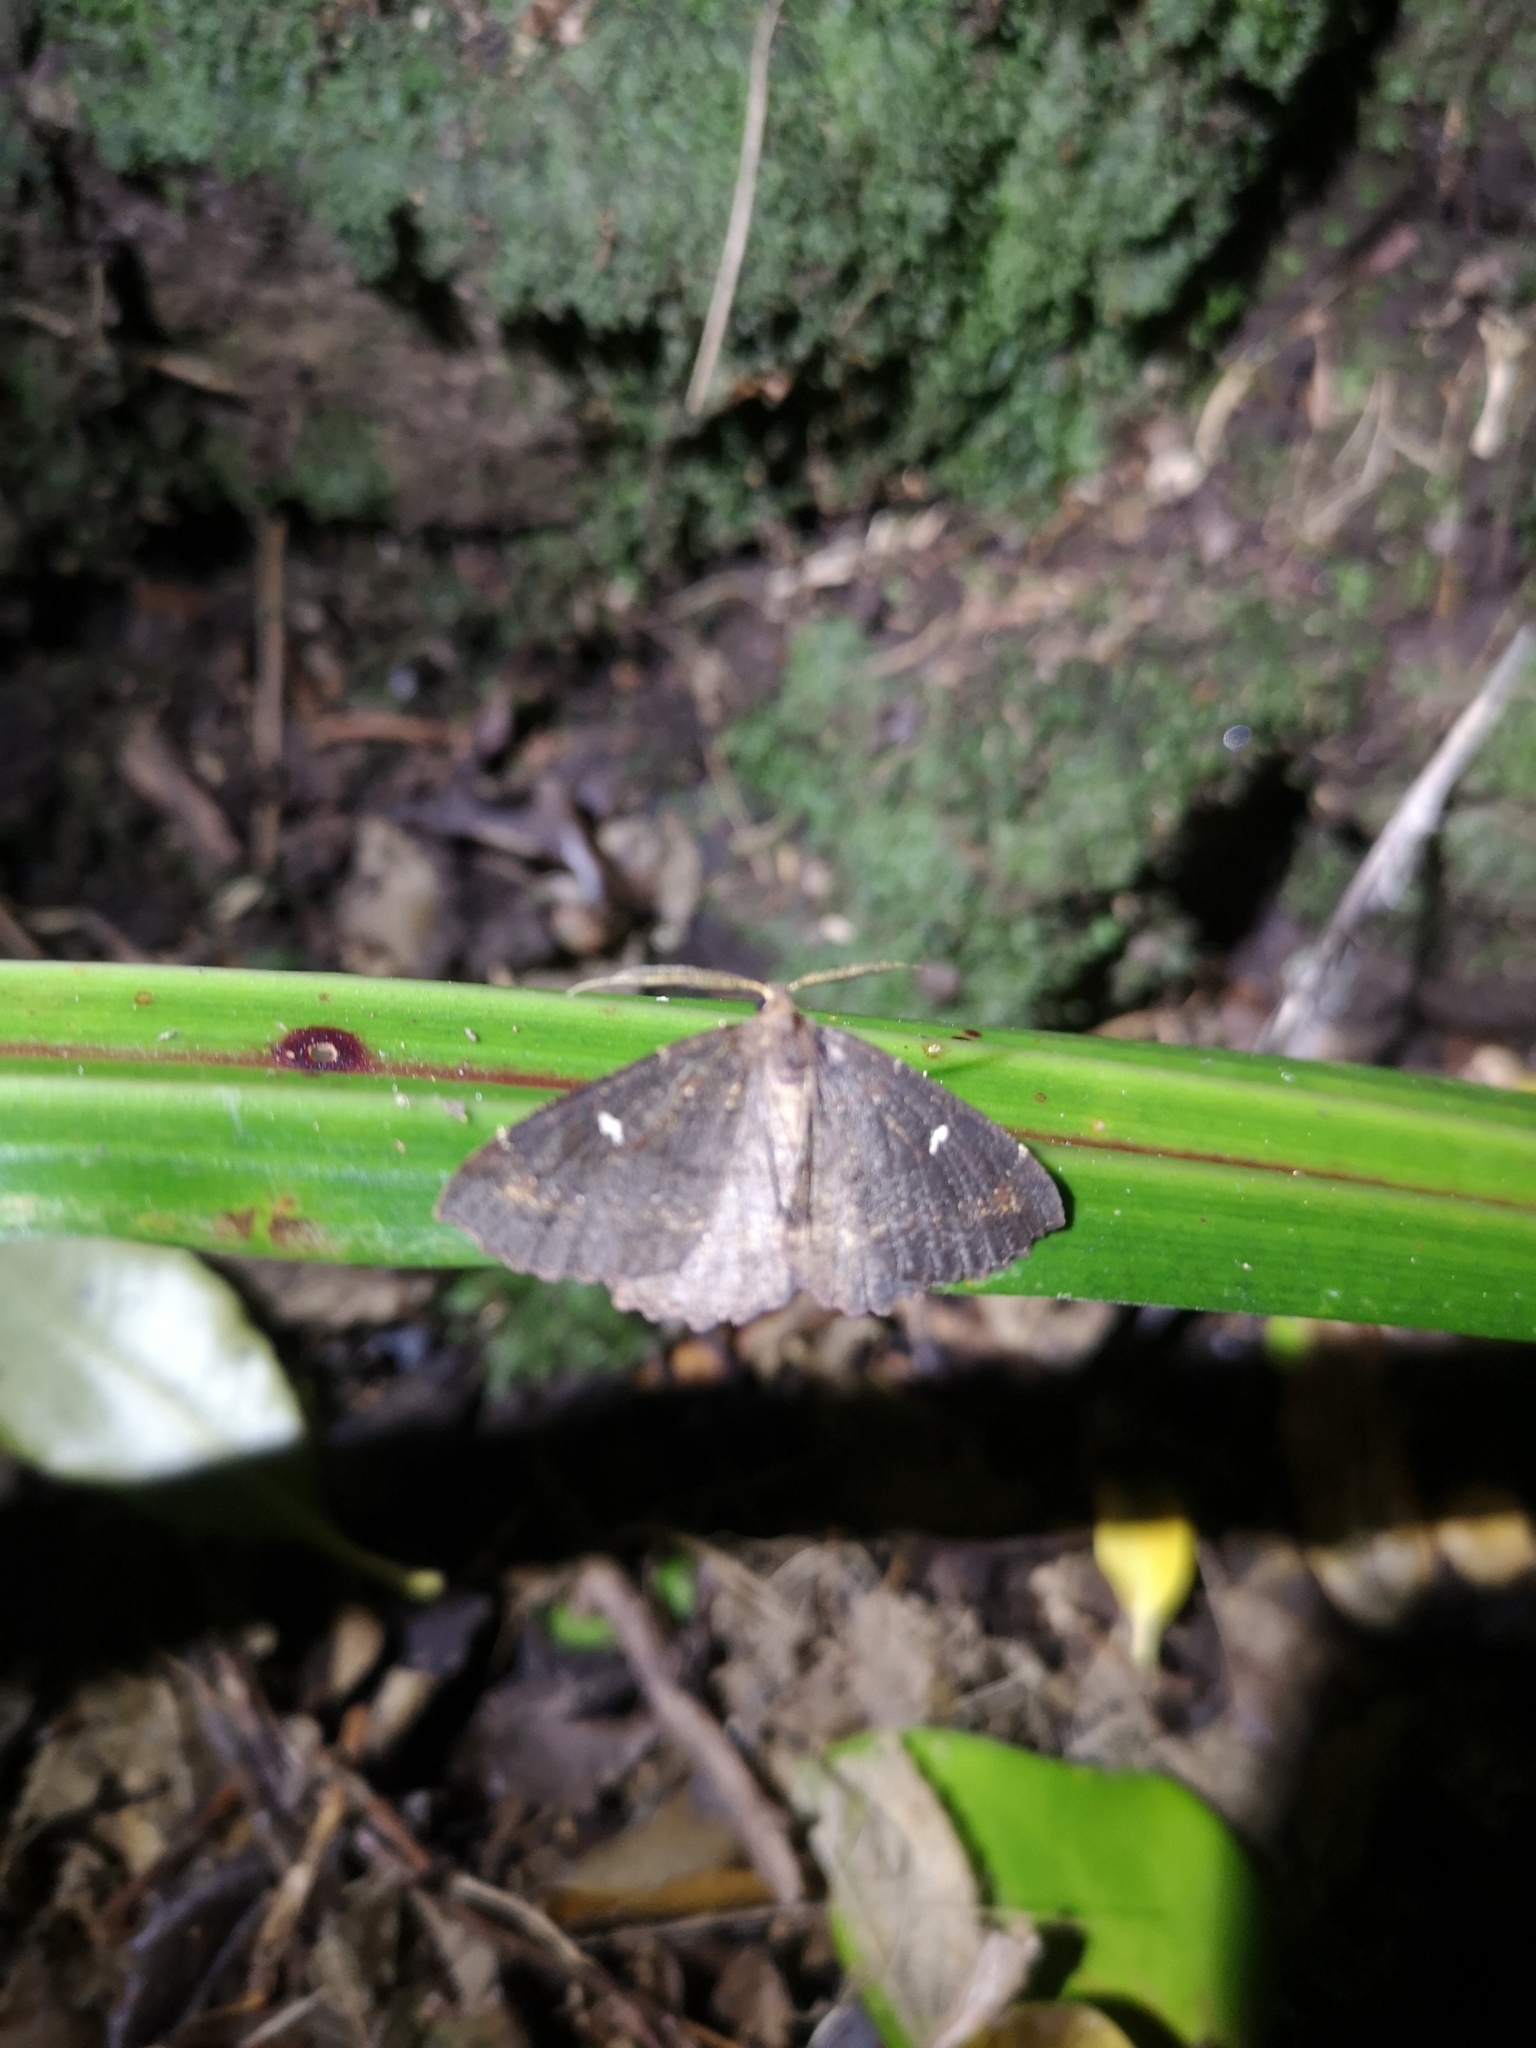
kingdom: Animalia
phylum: Arthropoda
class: Insecta
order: Lepidoptera
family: Geometridae
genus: Cleora
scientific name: Cleora scriptaria
